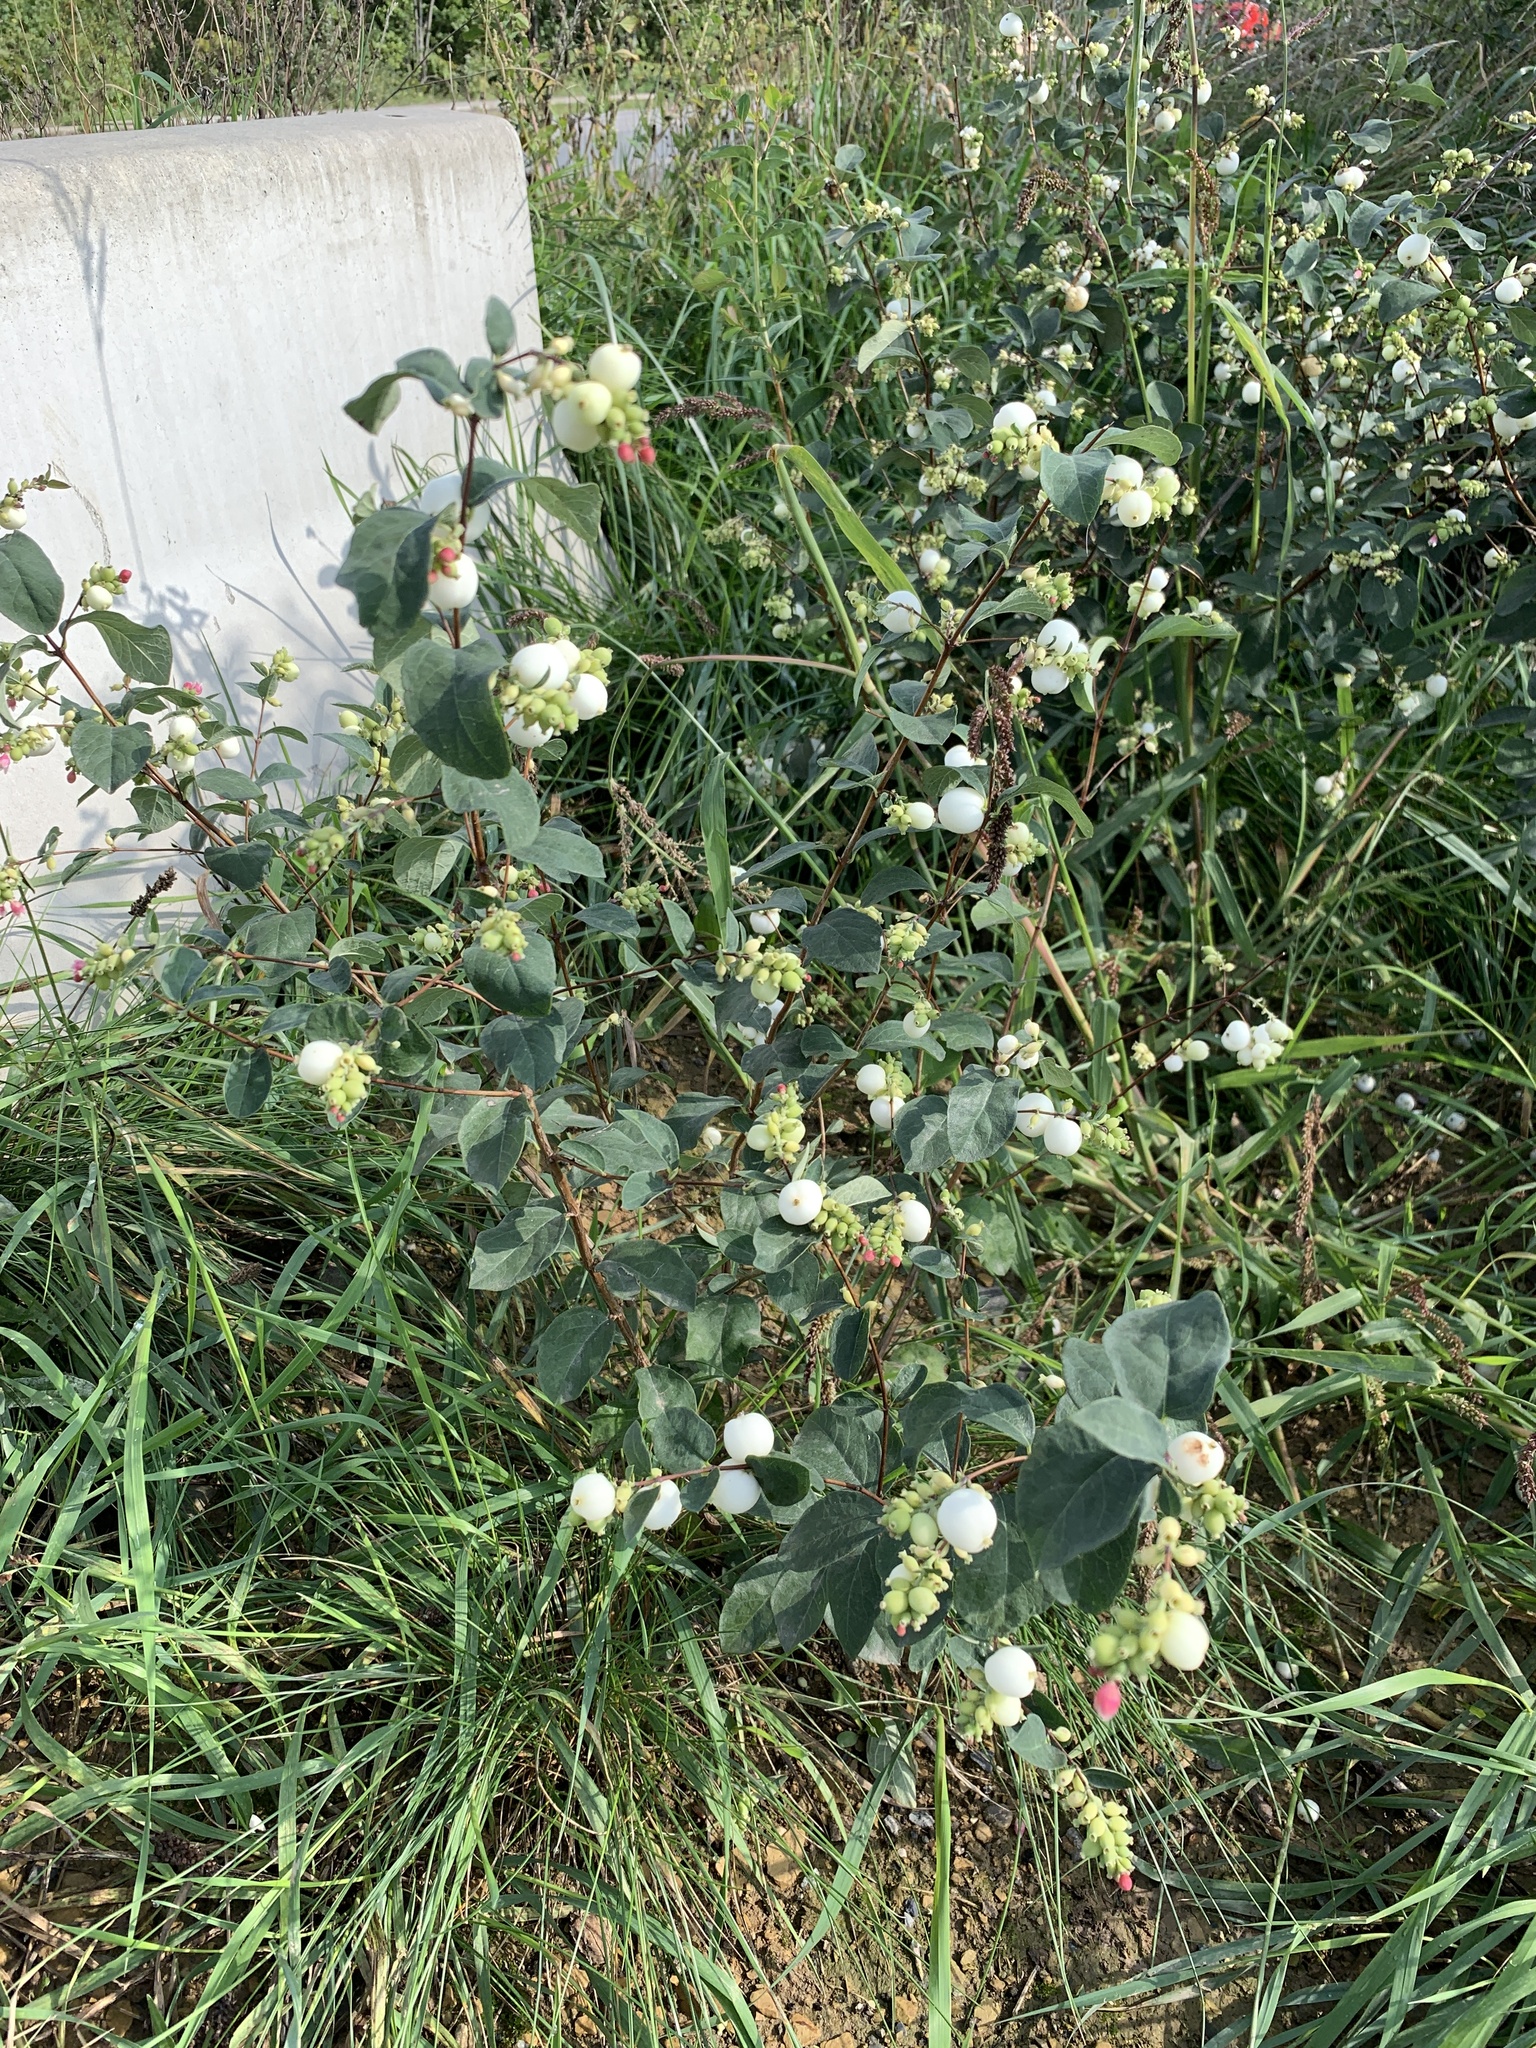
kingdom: Plantae
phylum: Tracheophyta
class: Magnoliopsida
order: Dipsacales
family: Caprifoliaceae
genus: Symphoricarpos
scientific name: Symphoricarpos albus
